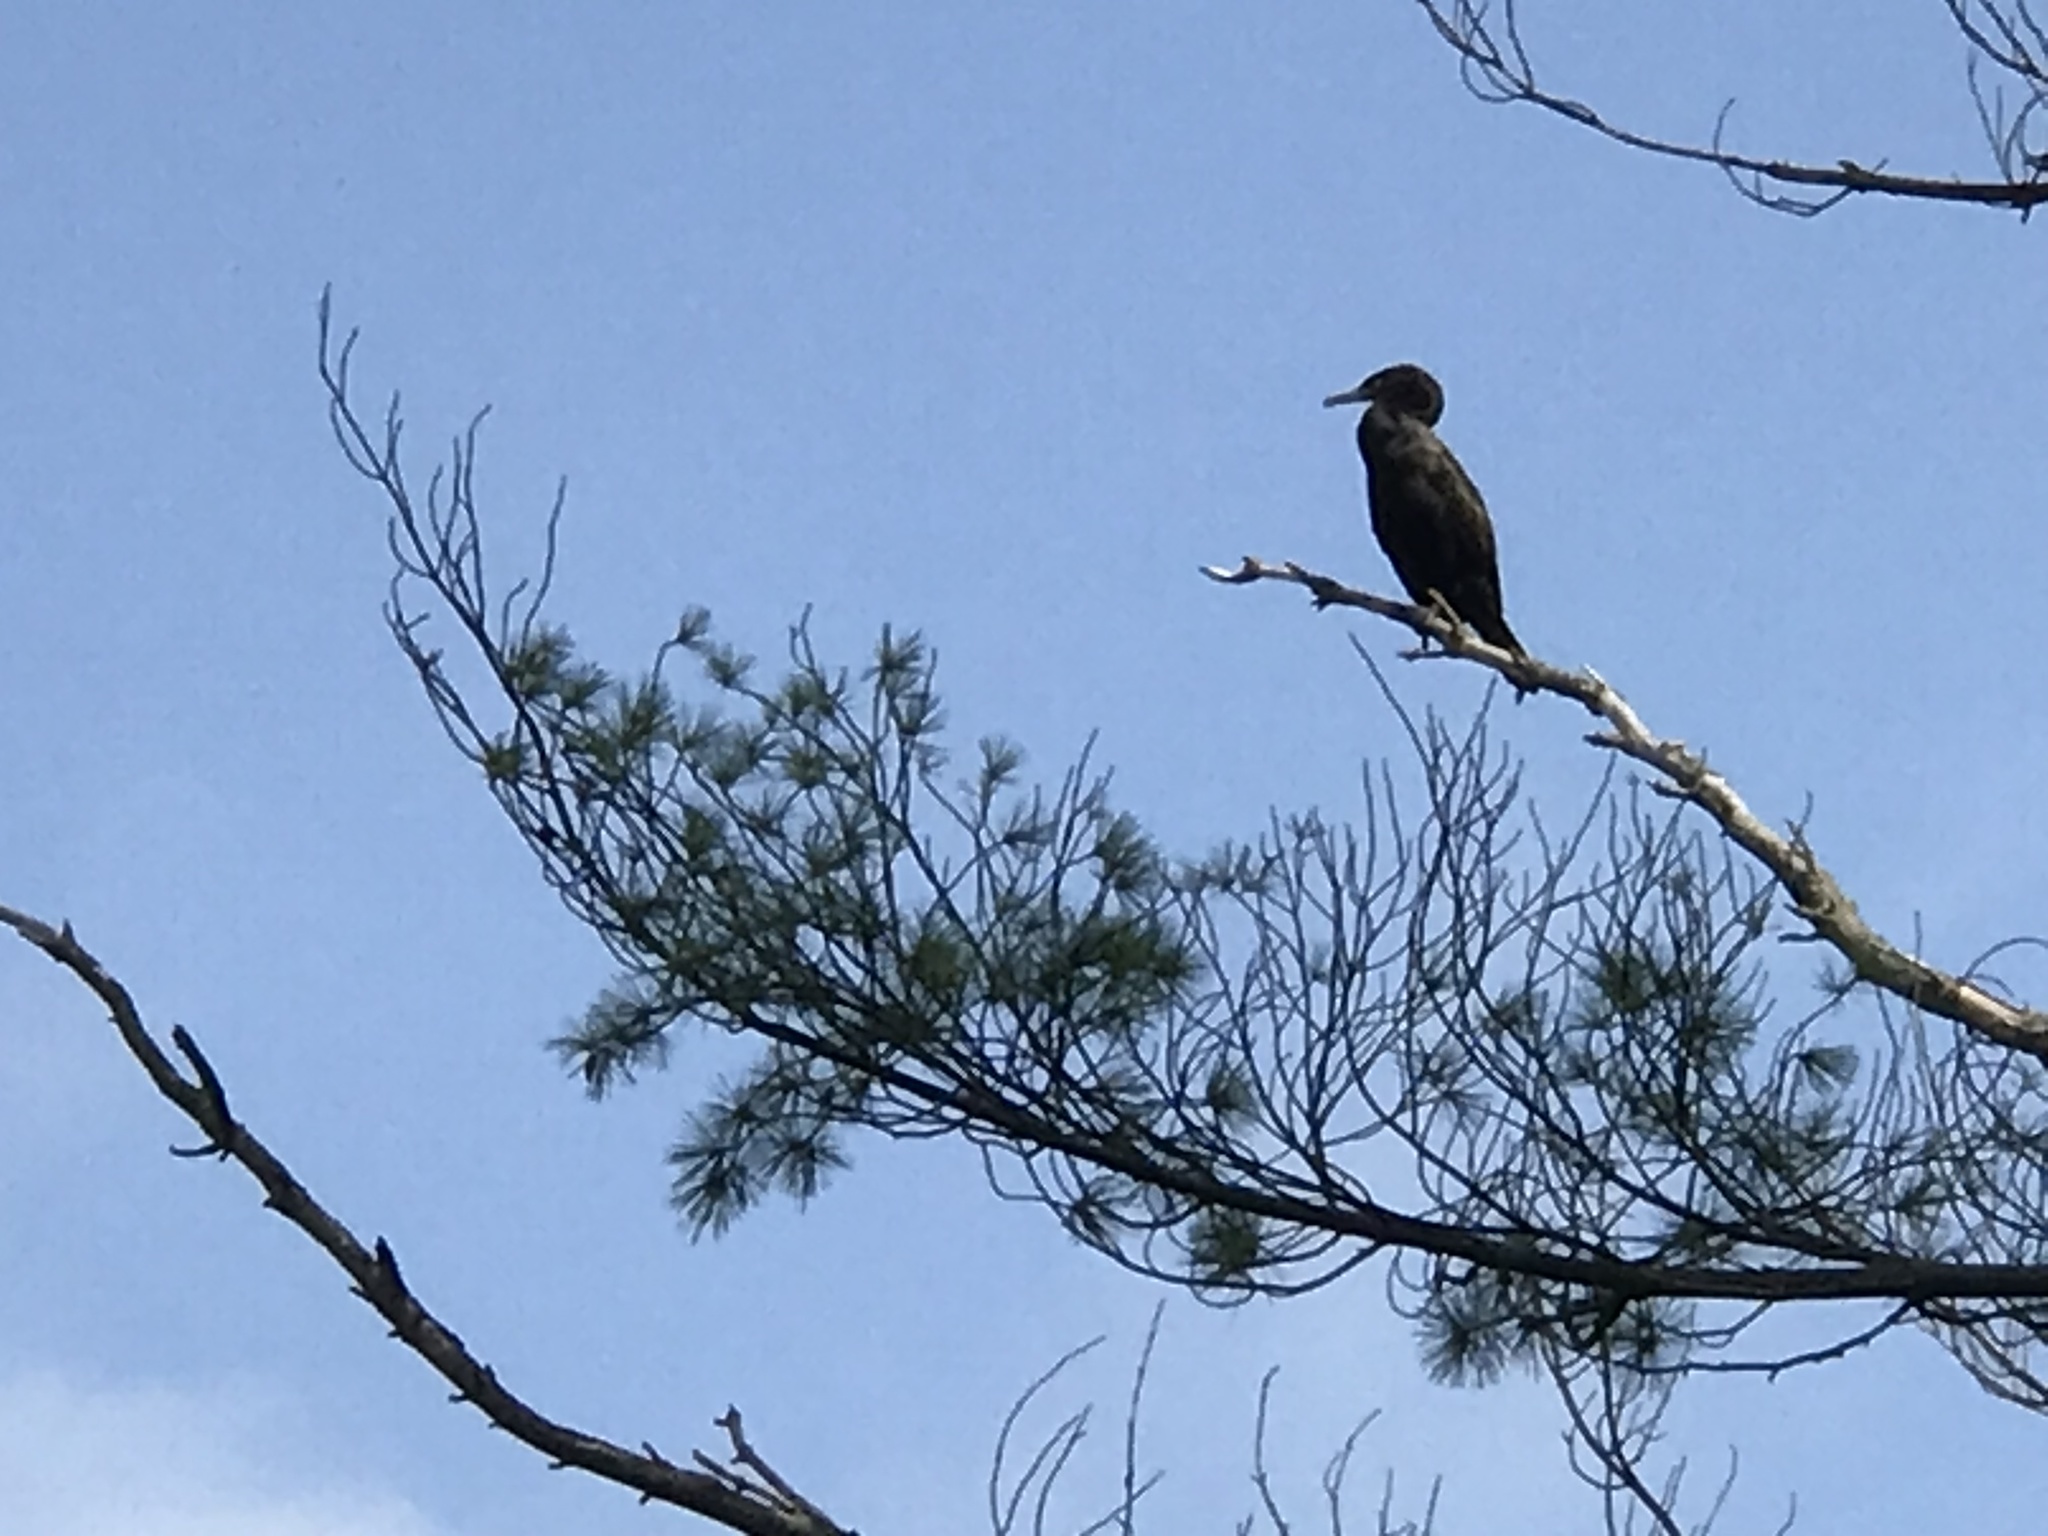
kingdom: Animalia
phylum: Chordata
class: Aves
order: Suliformes
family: Phalacrocoracidae
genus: Phalacrocorax
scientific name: Phalacrocorax auritus
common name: Double-crested cormorant
